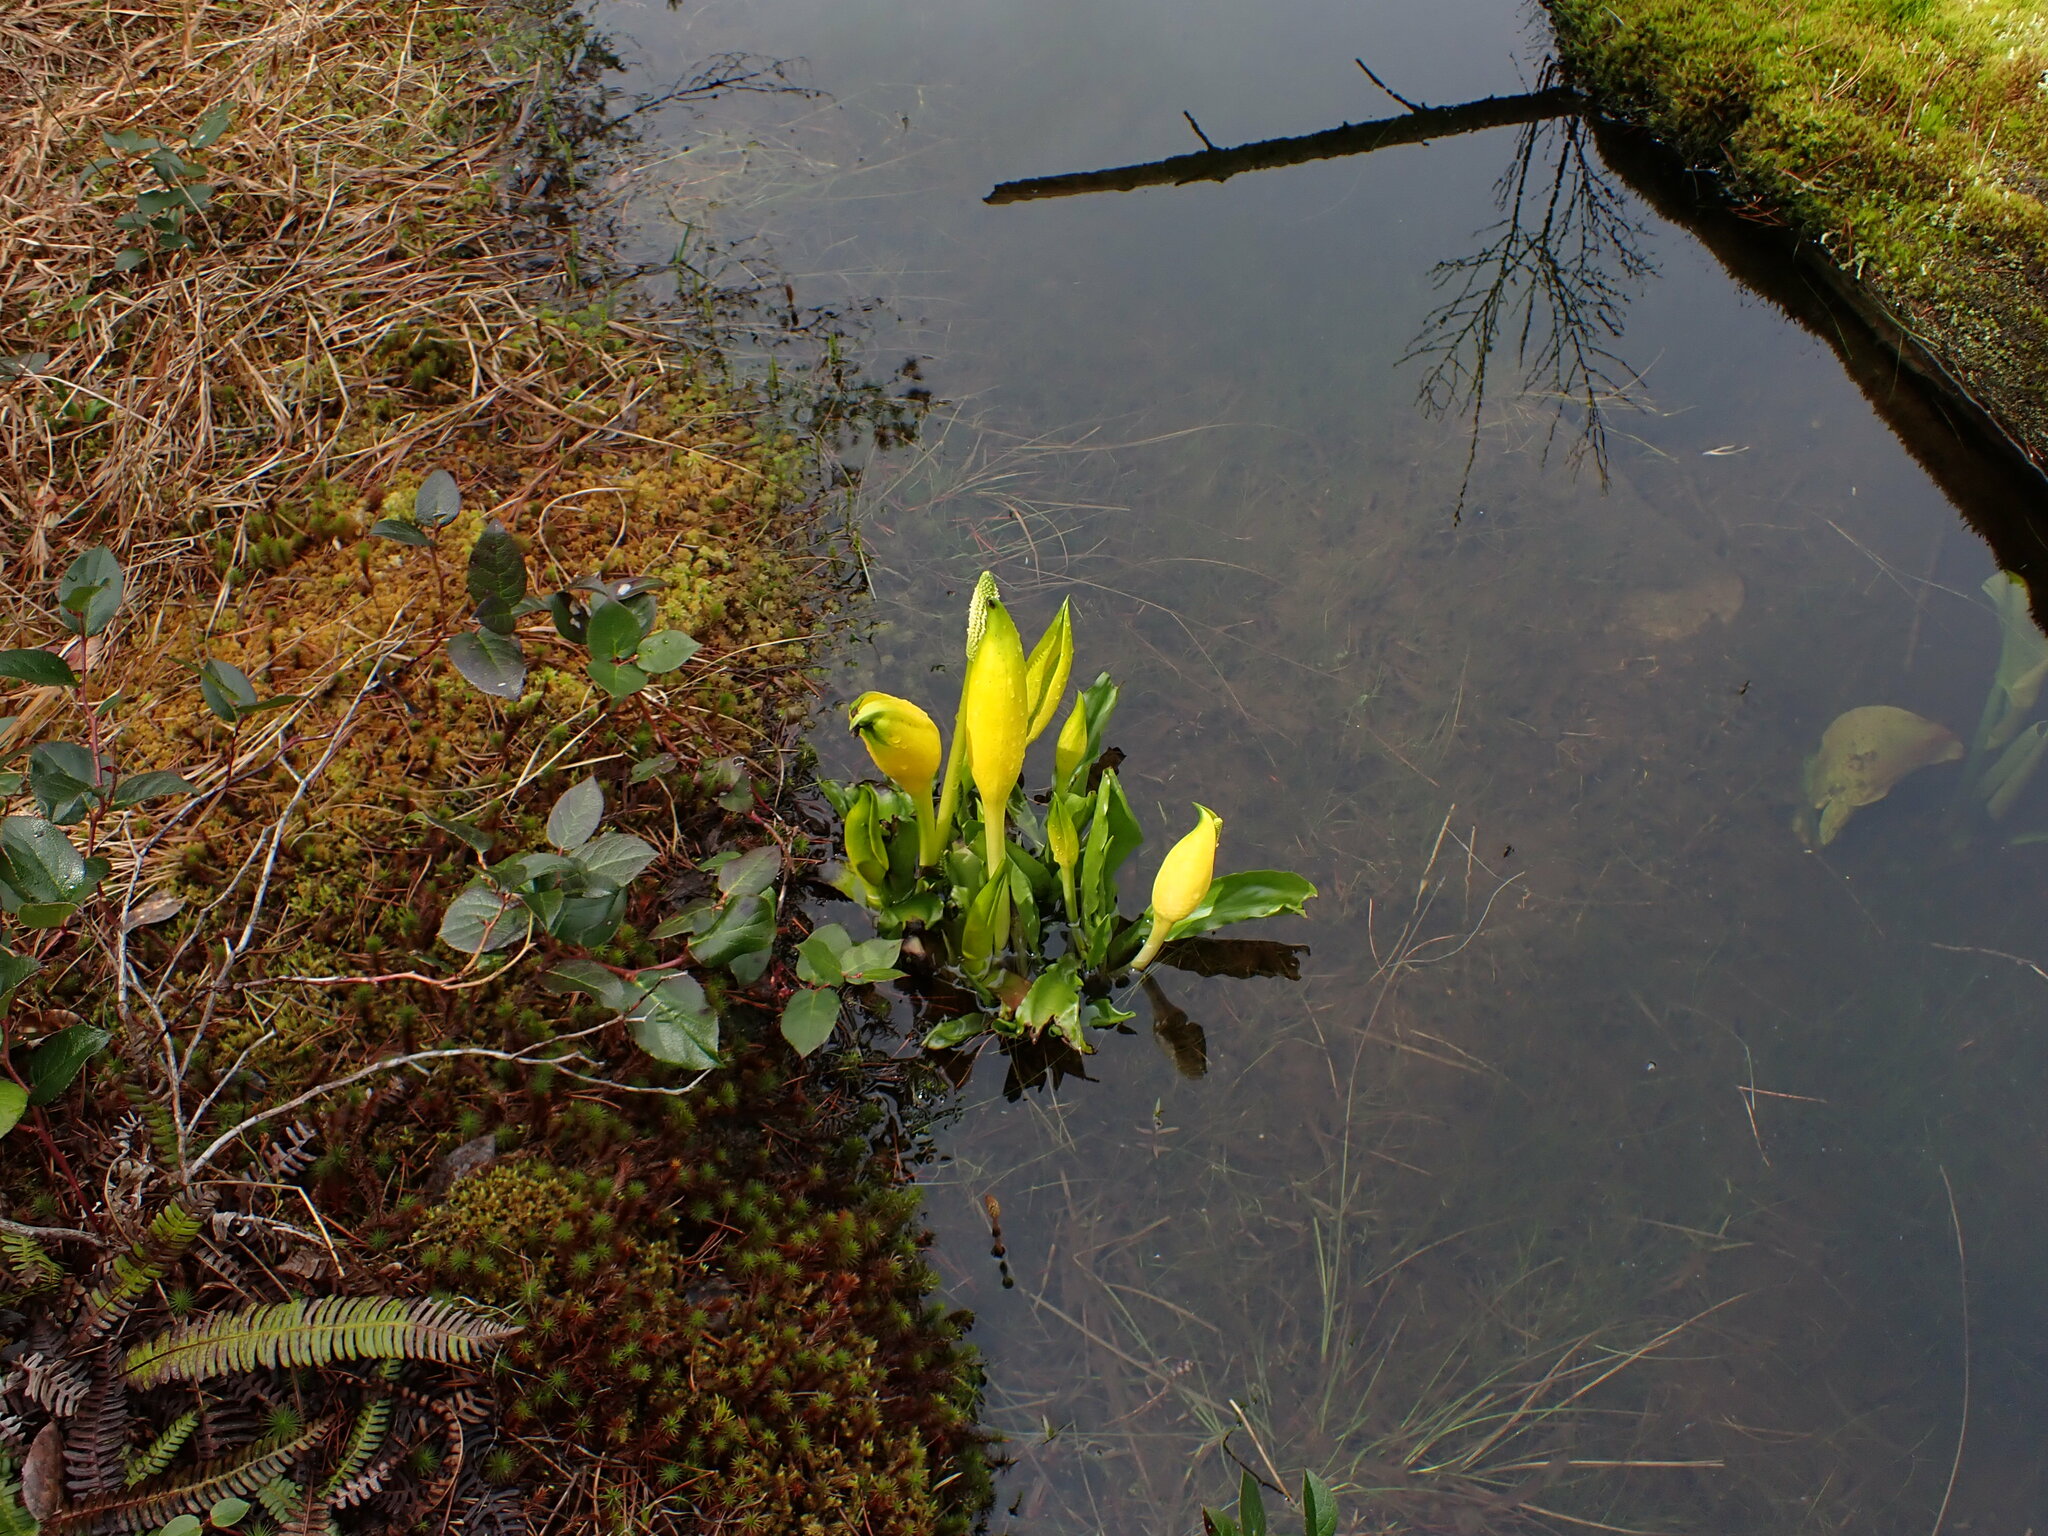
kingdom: Plantae
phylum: Tracheophyta
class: Liliopsida
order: Alismatales
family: Araceae
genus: Lysichiton
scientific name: Lysichiton americanus
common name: American skunk cabbage
